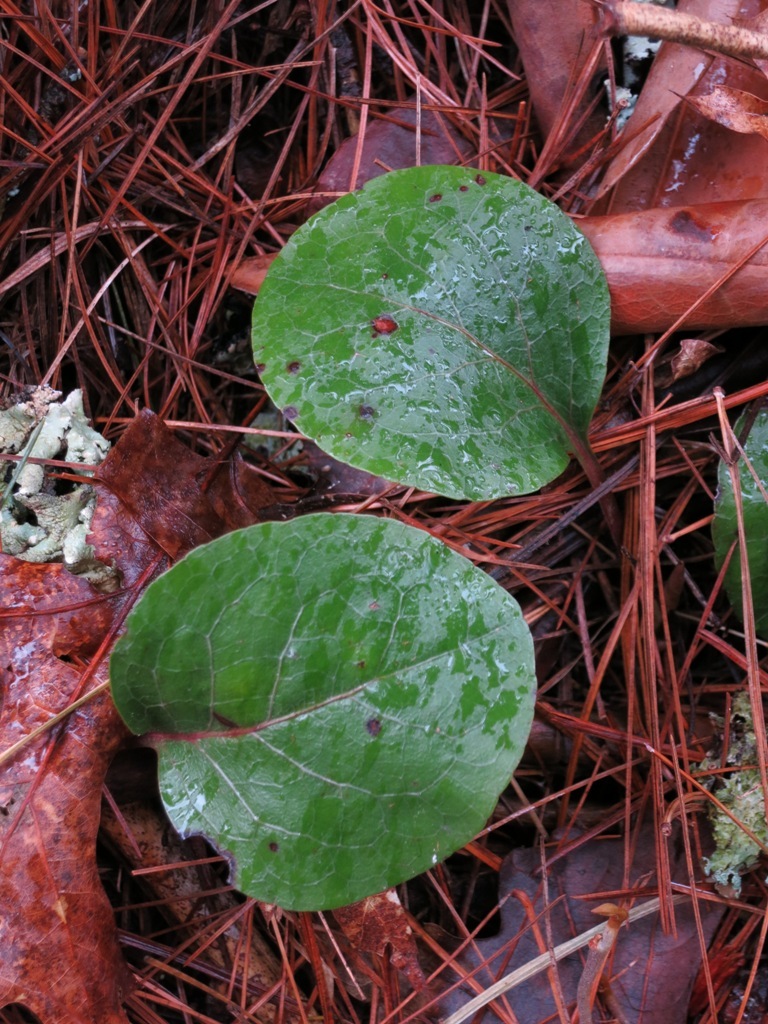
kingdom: Plantae
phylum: Tracheophyta
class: Magnoliopsida
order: Ericales
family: Ericaceae
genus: Pyrola
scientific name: Pyrola americana
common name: American wintergreen
